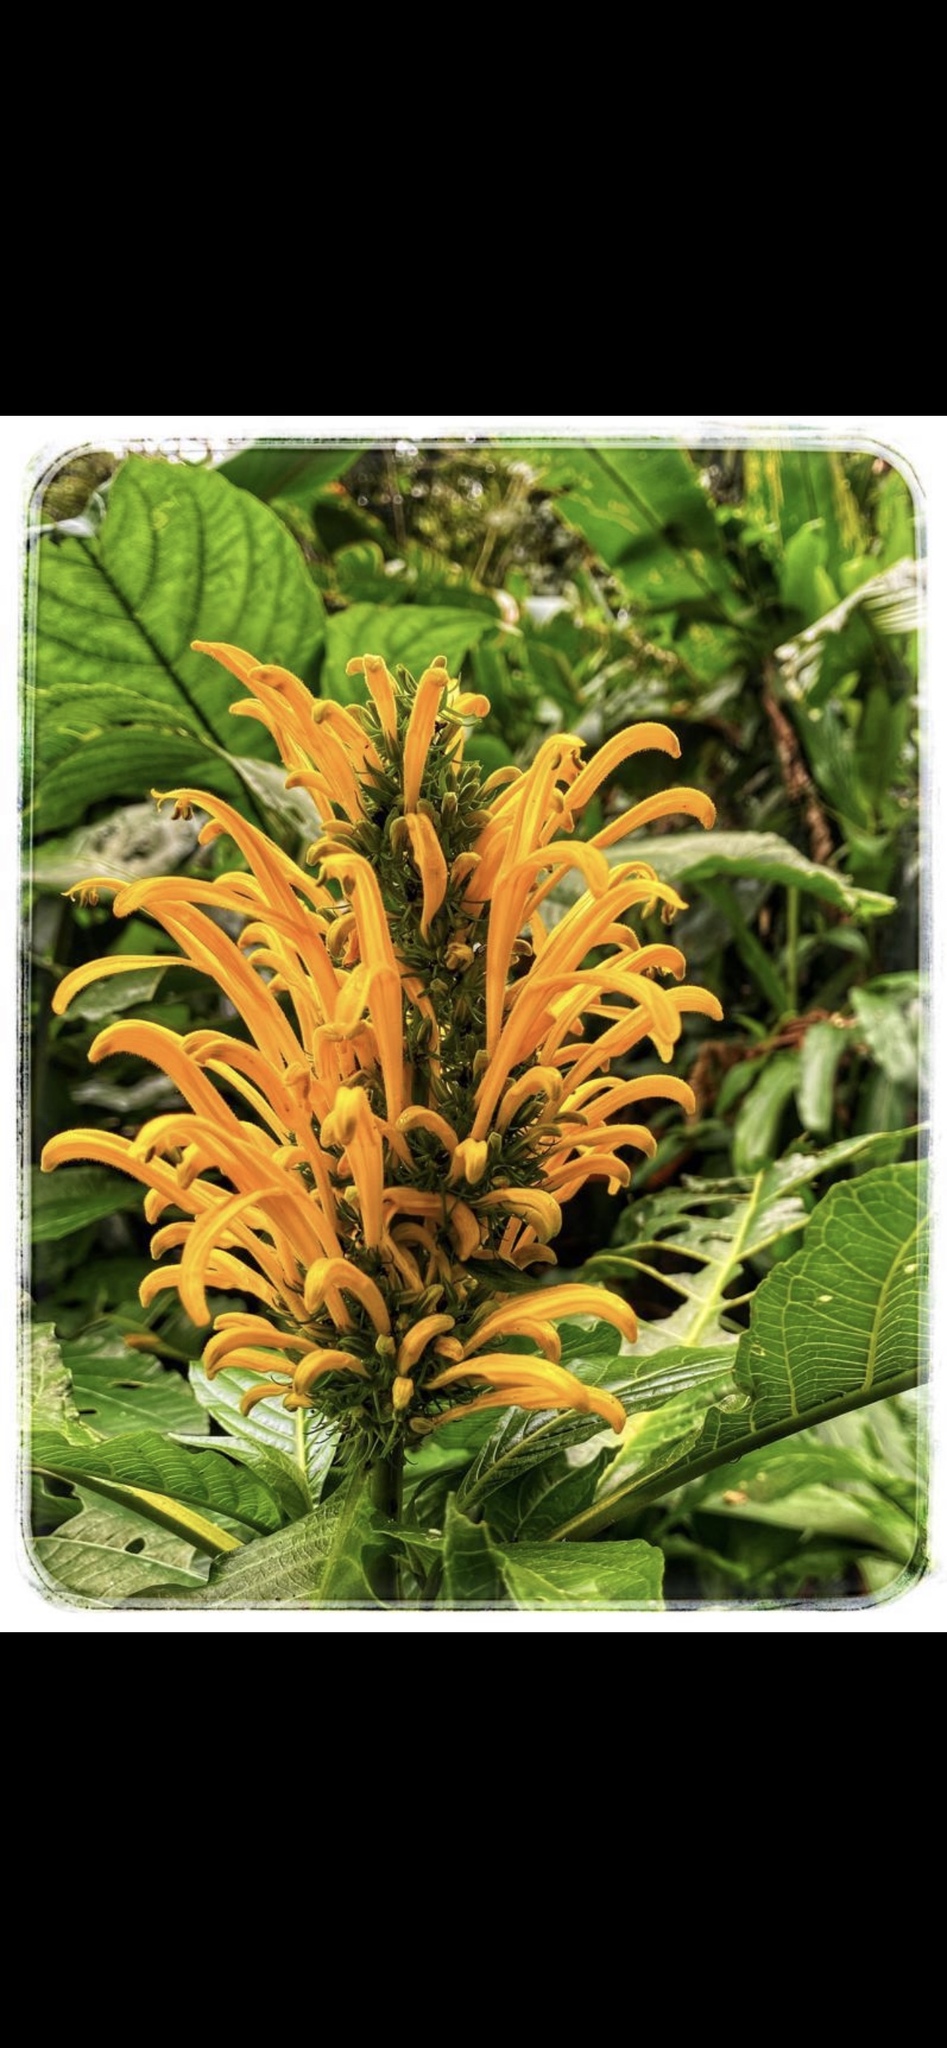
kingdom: Plantae
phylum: Tracheophyta
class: Magnoliopsida
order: Lamiales
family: Acanthaceae
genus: Justicia
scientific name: Justicia aurea
